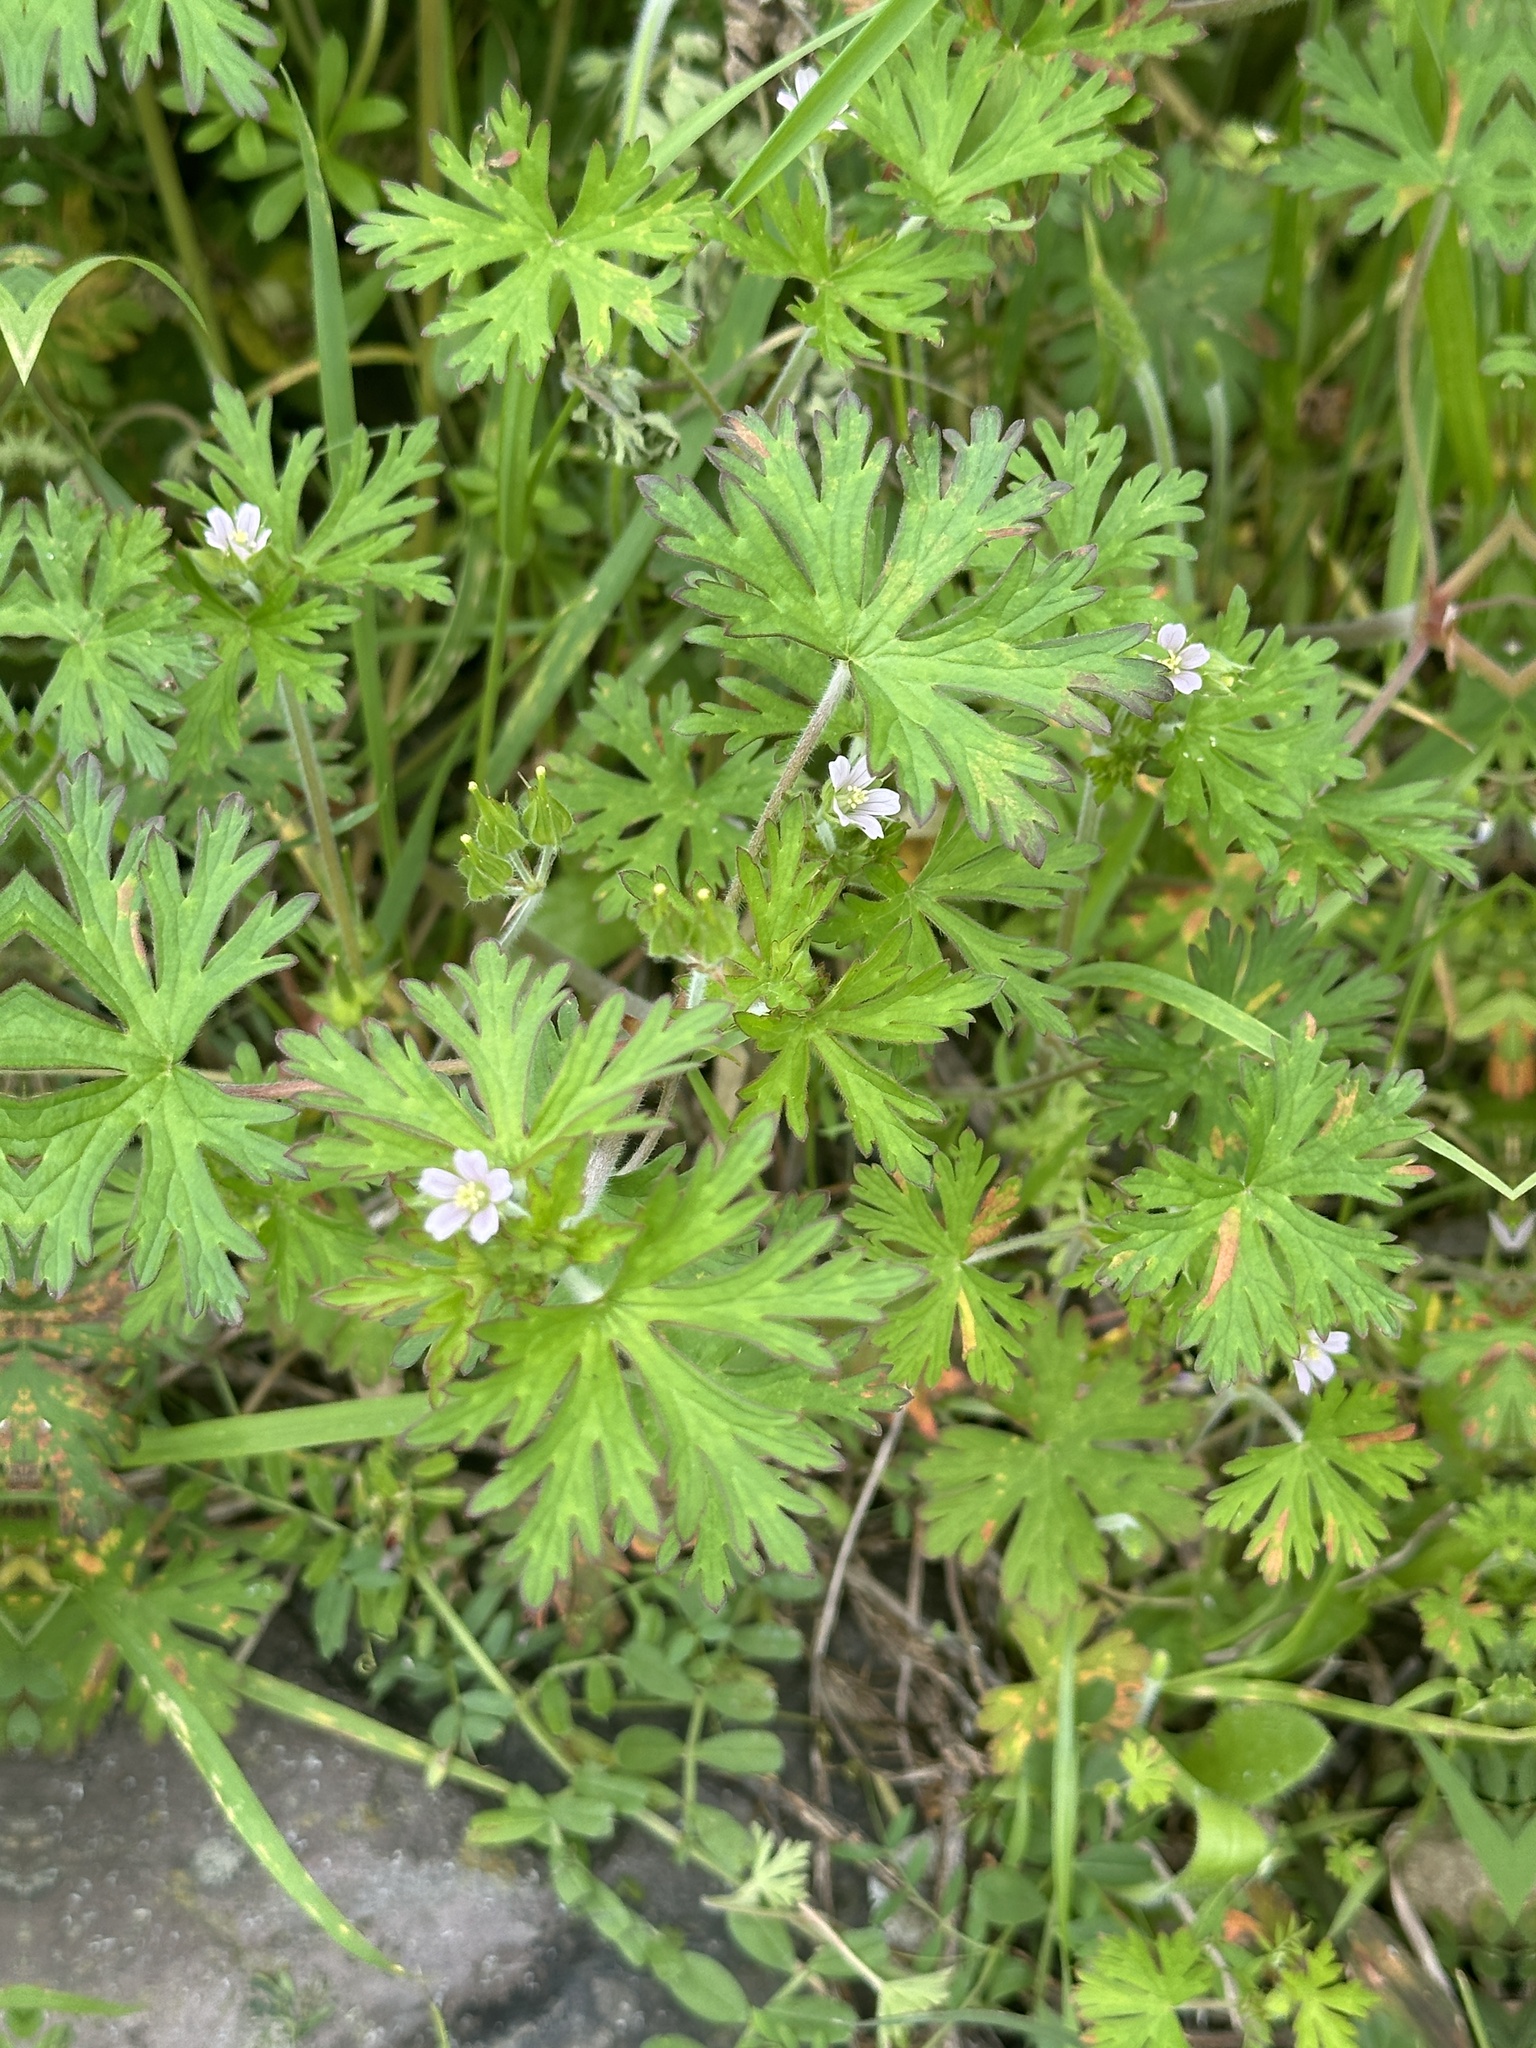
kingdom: Plantae
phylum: Tracheophyta
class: Magnoliopsida
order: Geraniales
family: Geraniaceae
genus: Geranium
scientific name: Geranium carolinianum
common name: Carolina crane's-bill
